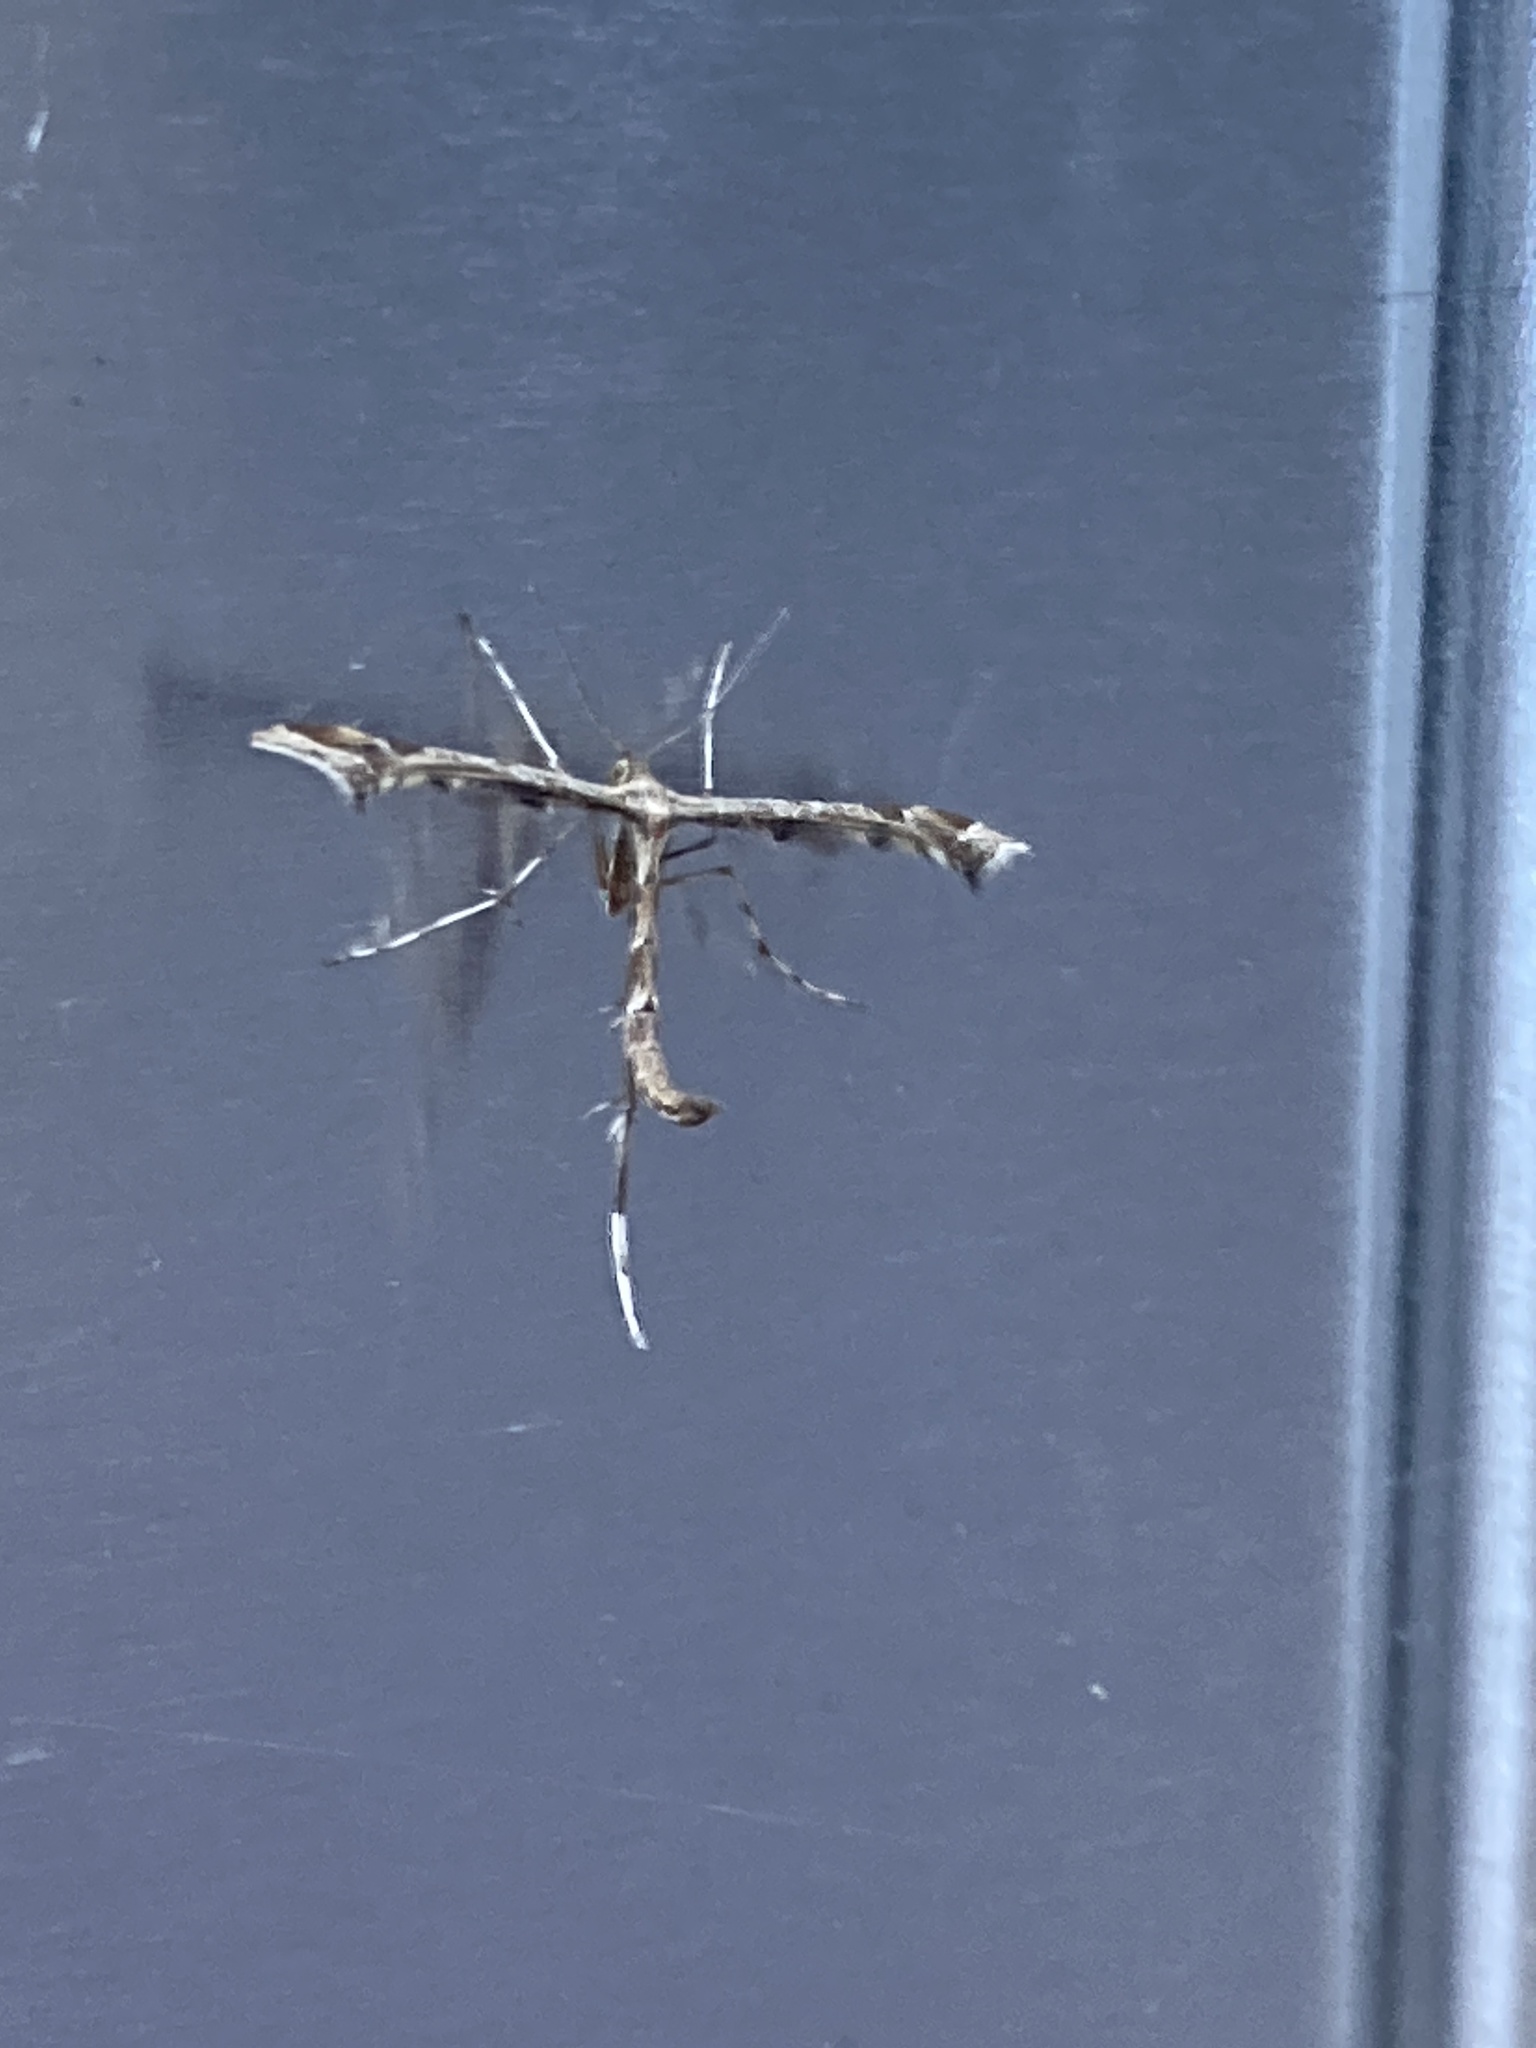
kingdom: Animalia
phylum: Arthropoda
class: Insecta
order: Lepidoptera
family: Pterophoridae
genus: Amblyptilia
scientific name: Amblyptilia acanthadactyla
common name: Beautiful plume
